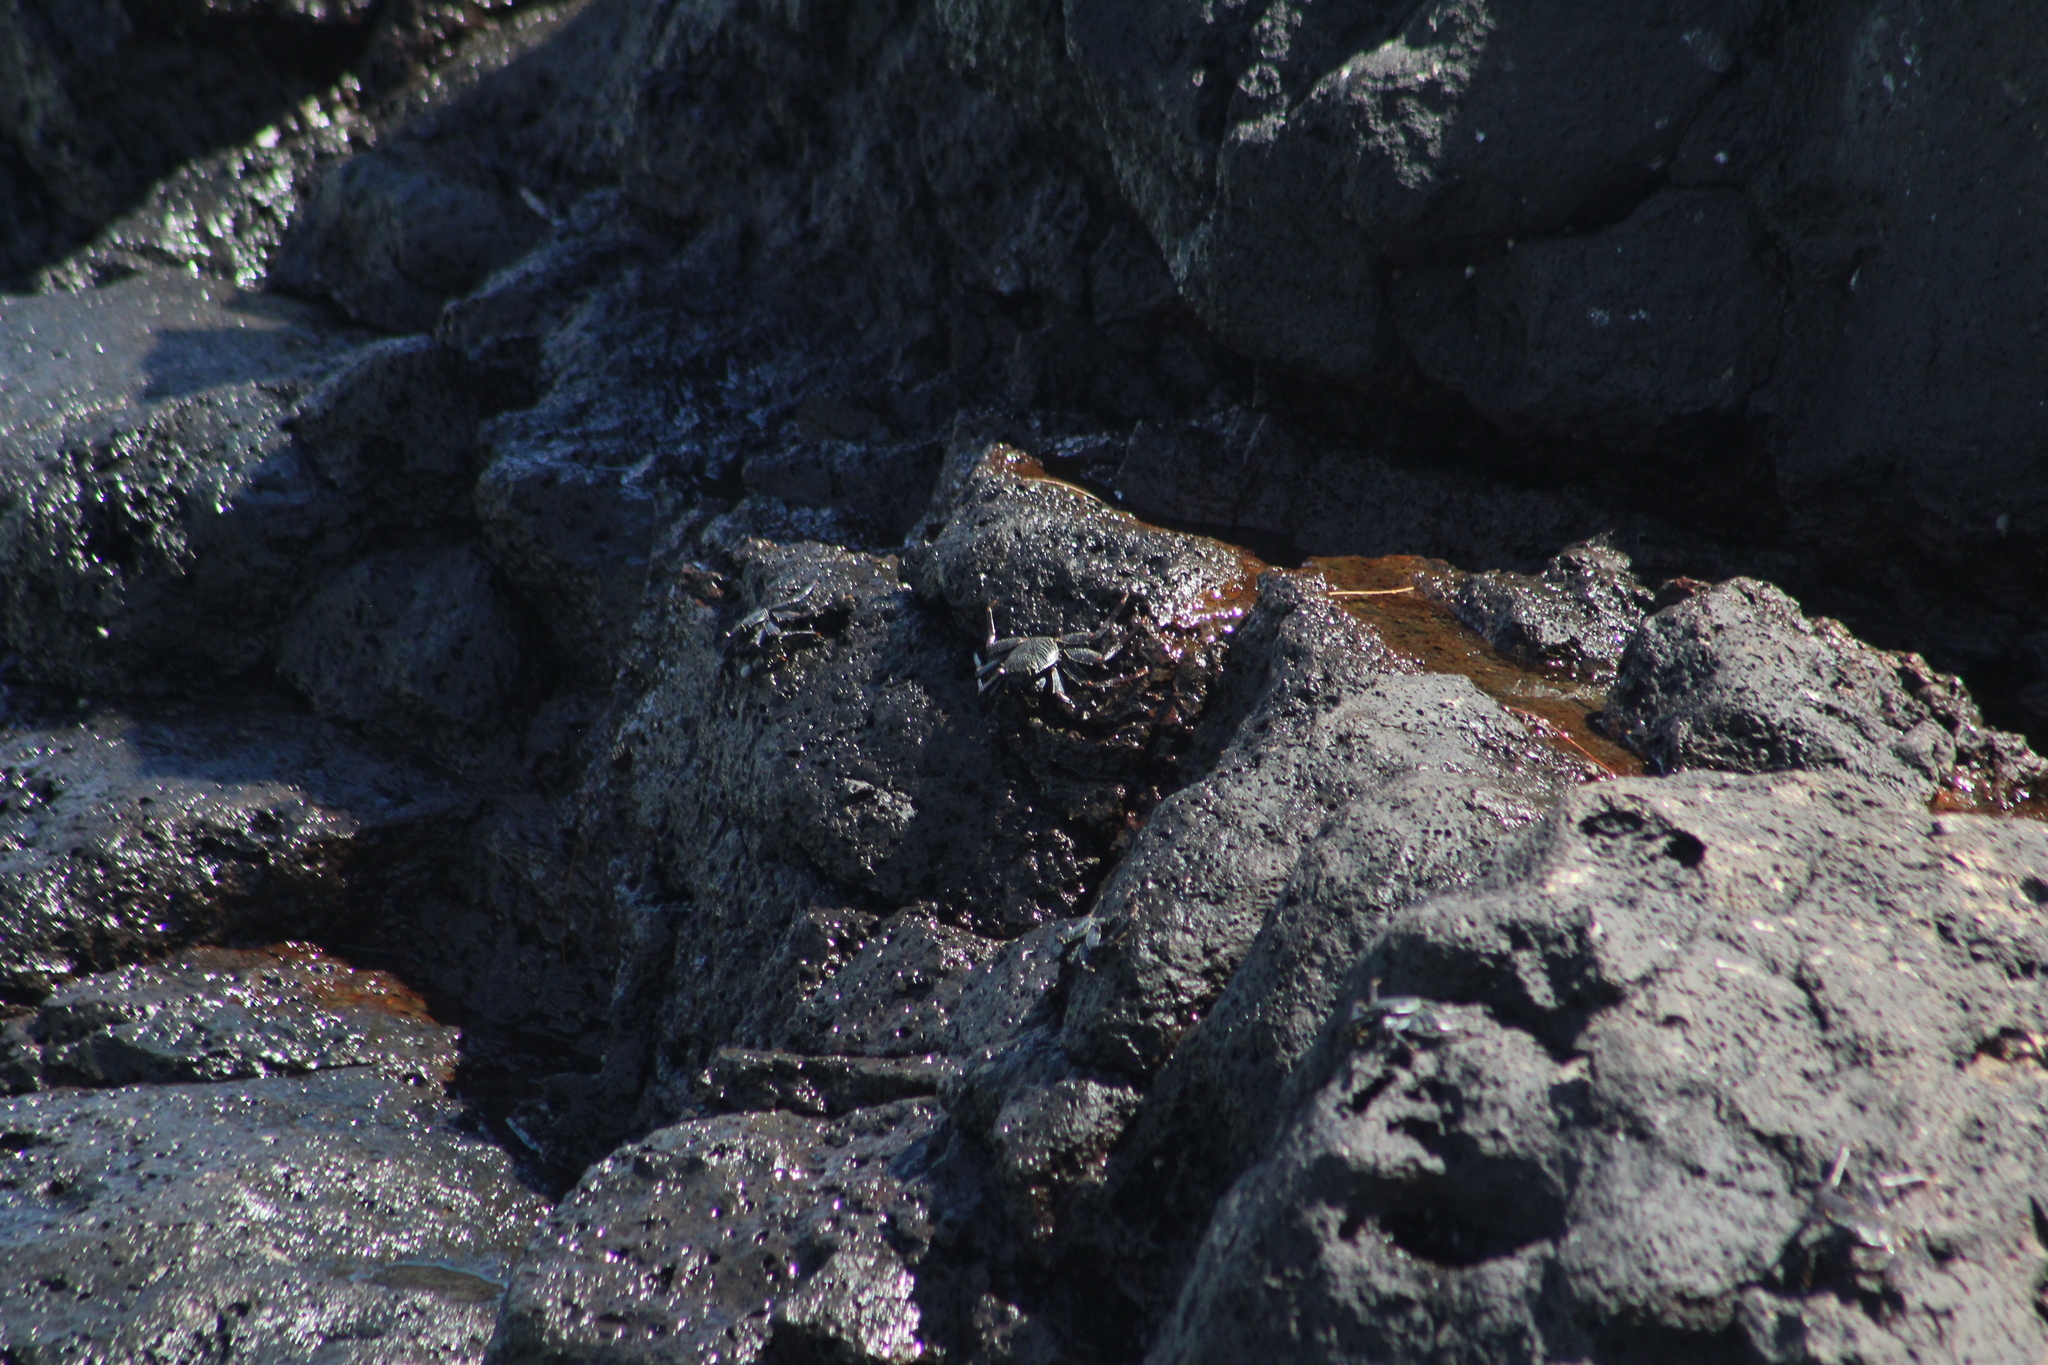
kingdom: Animalia
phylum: Arthropoda
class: Malacostraca
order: Decapoda
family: Grapsidae
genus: Grapsus
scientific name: Grapsus tenuicrustatus
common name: Natal lightfoot crab
